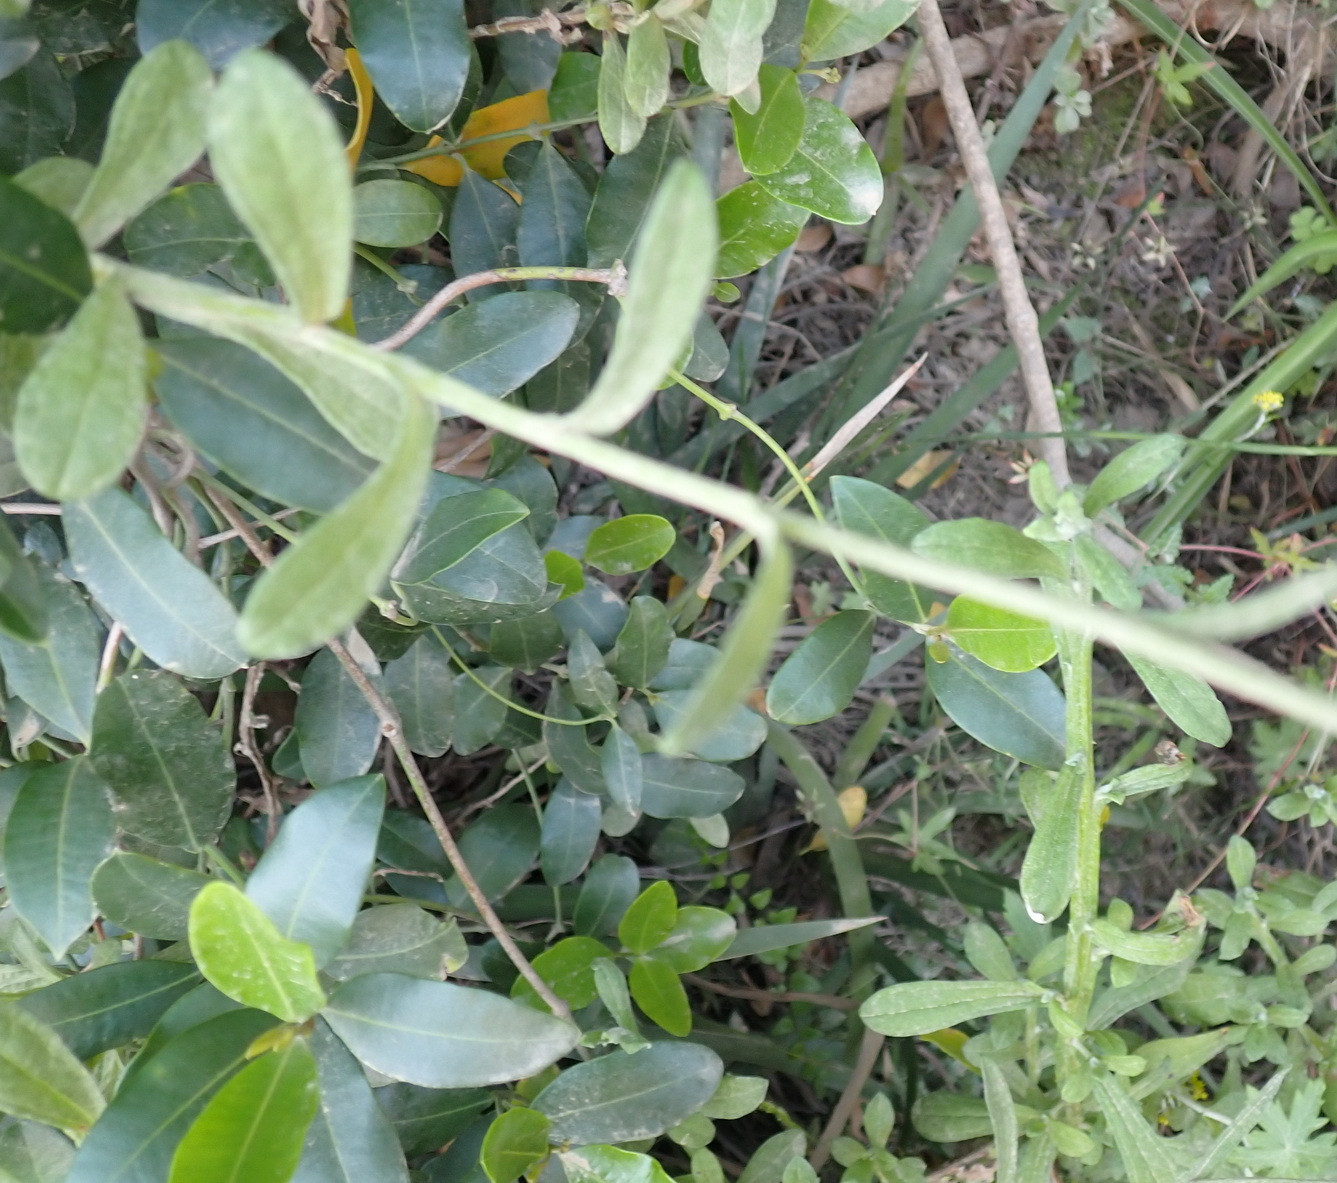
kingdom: Plantae
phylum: Tracheophyta
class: Magnoliopsida
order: Asterales
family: Asteraceae
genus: Helichrysum
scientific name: Helichrysum umbraculigerum
